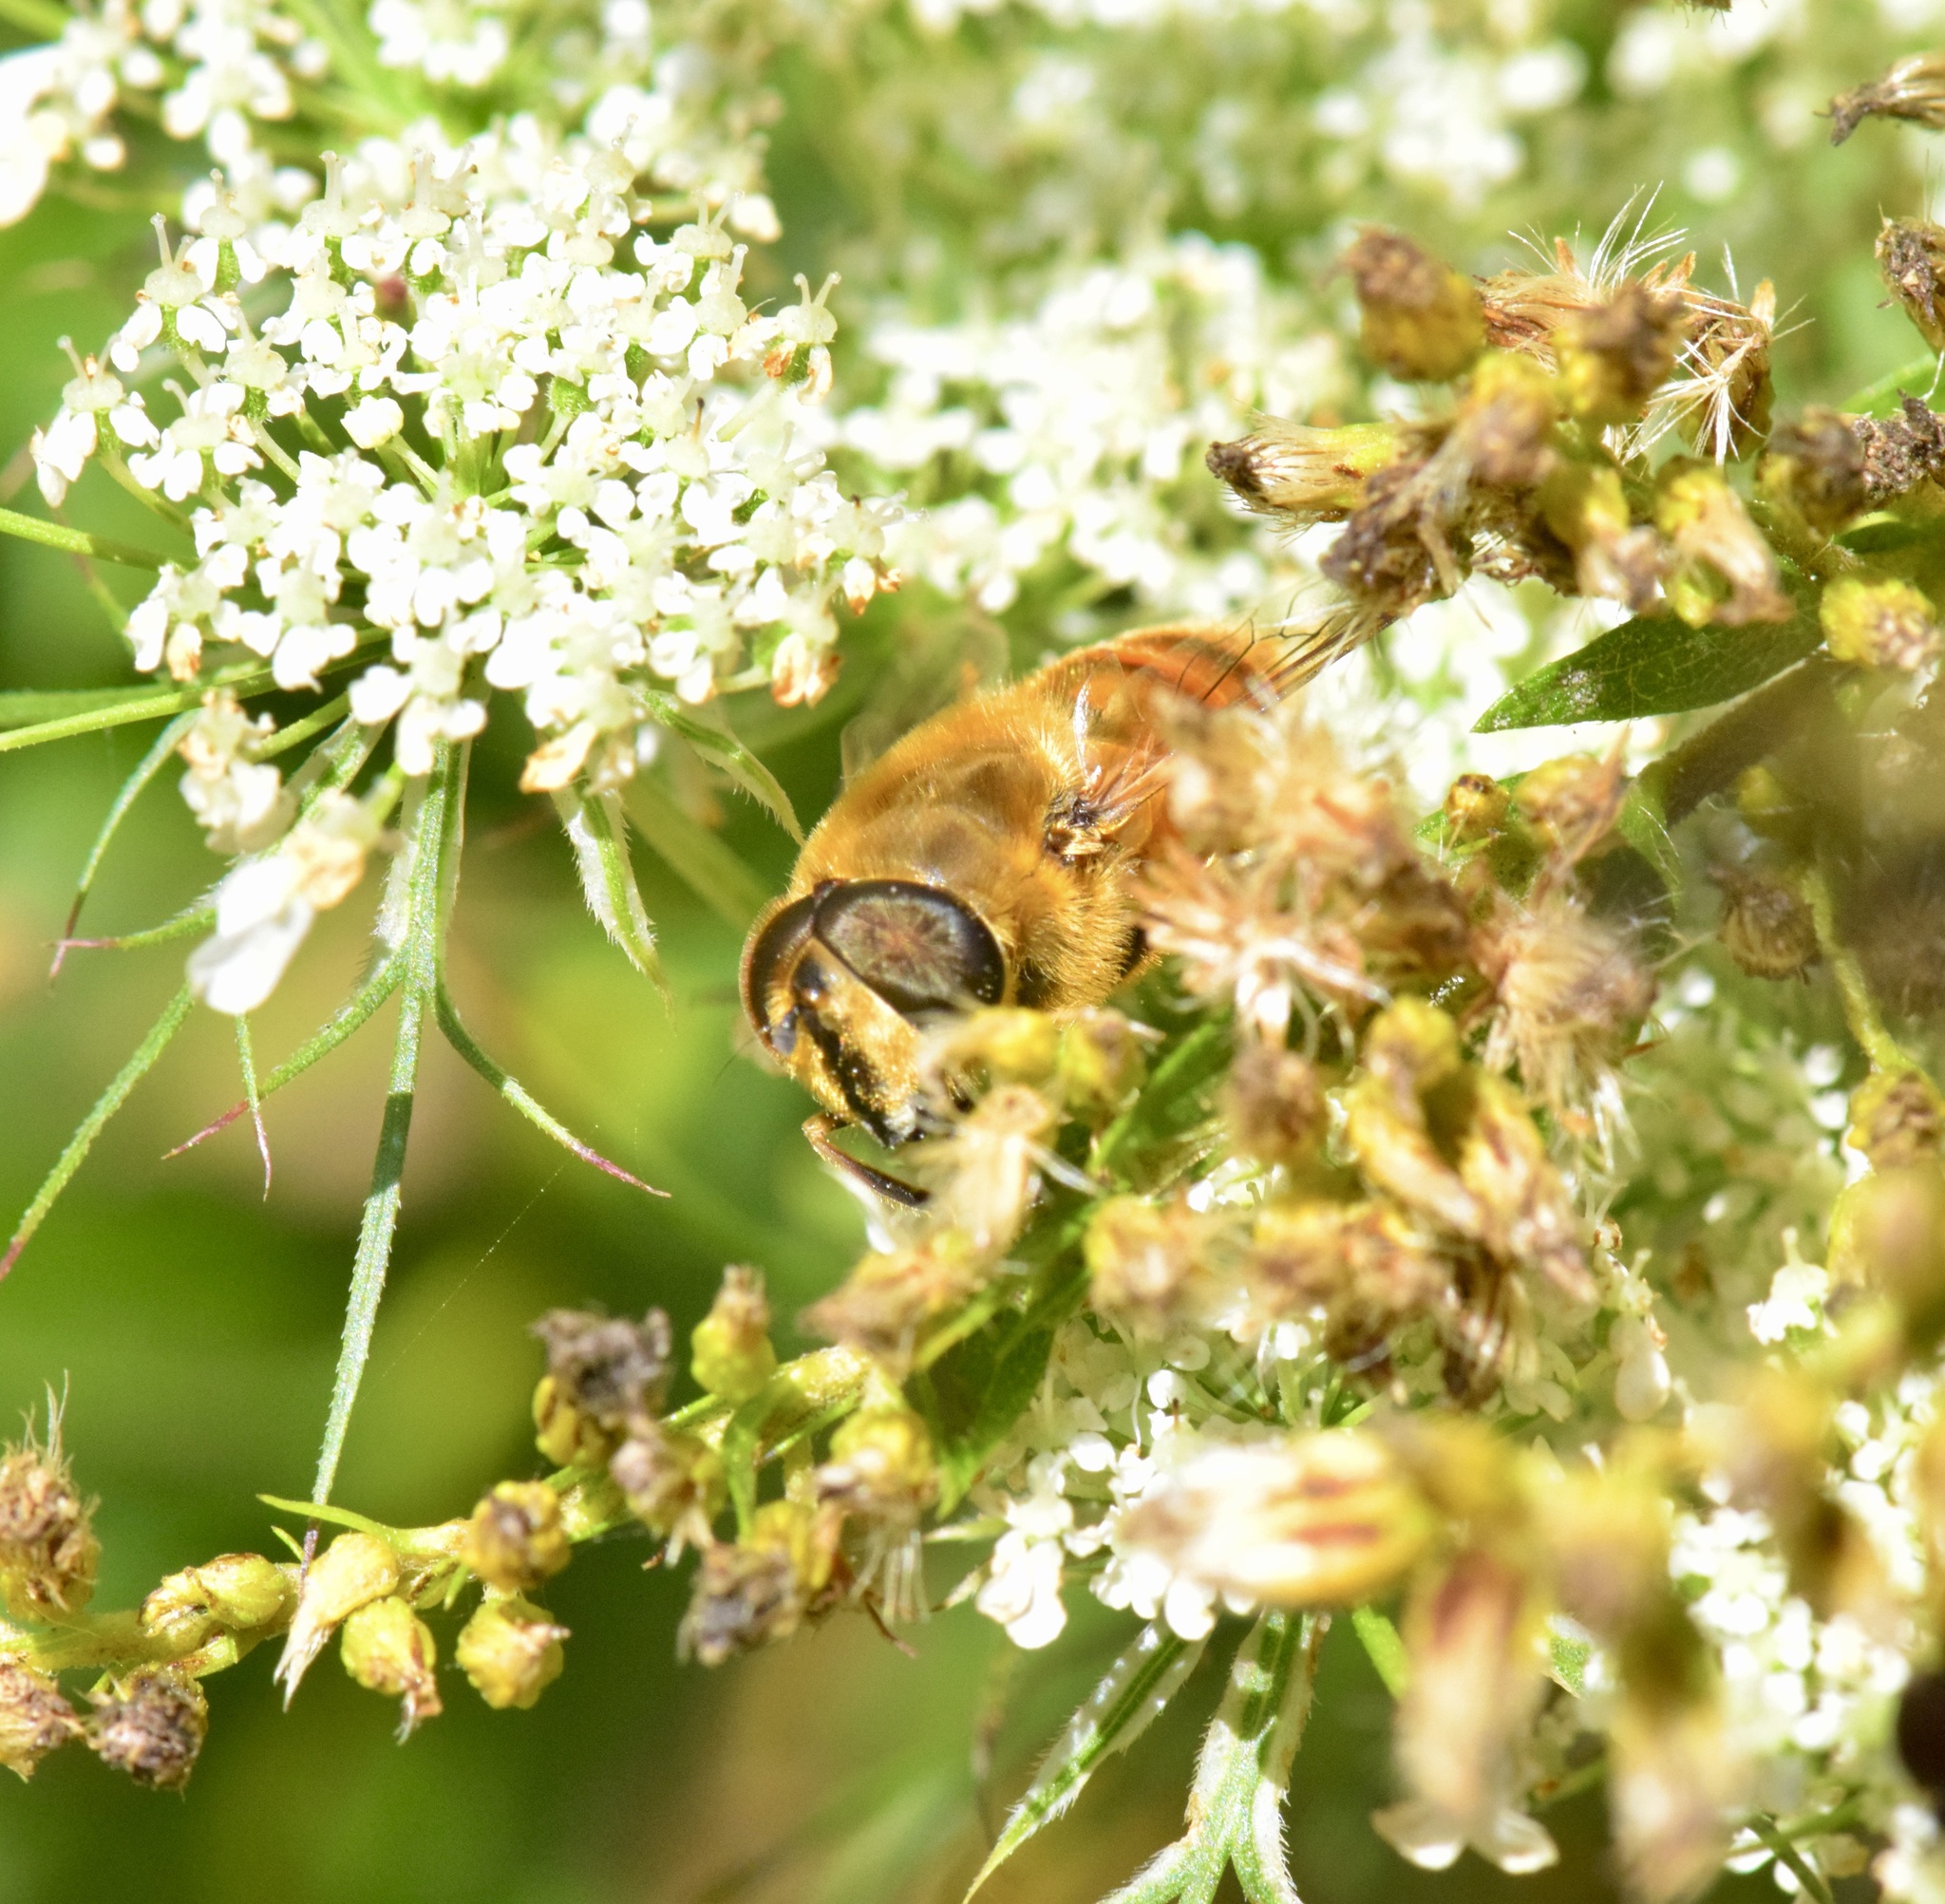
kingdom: Animalia
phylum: Arthropoda
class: Insecta
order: Diptera
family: Syrphidae
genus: Eristalis
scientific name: Eristalis tenax
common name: Drone fly
